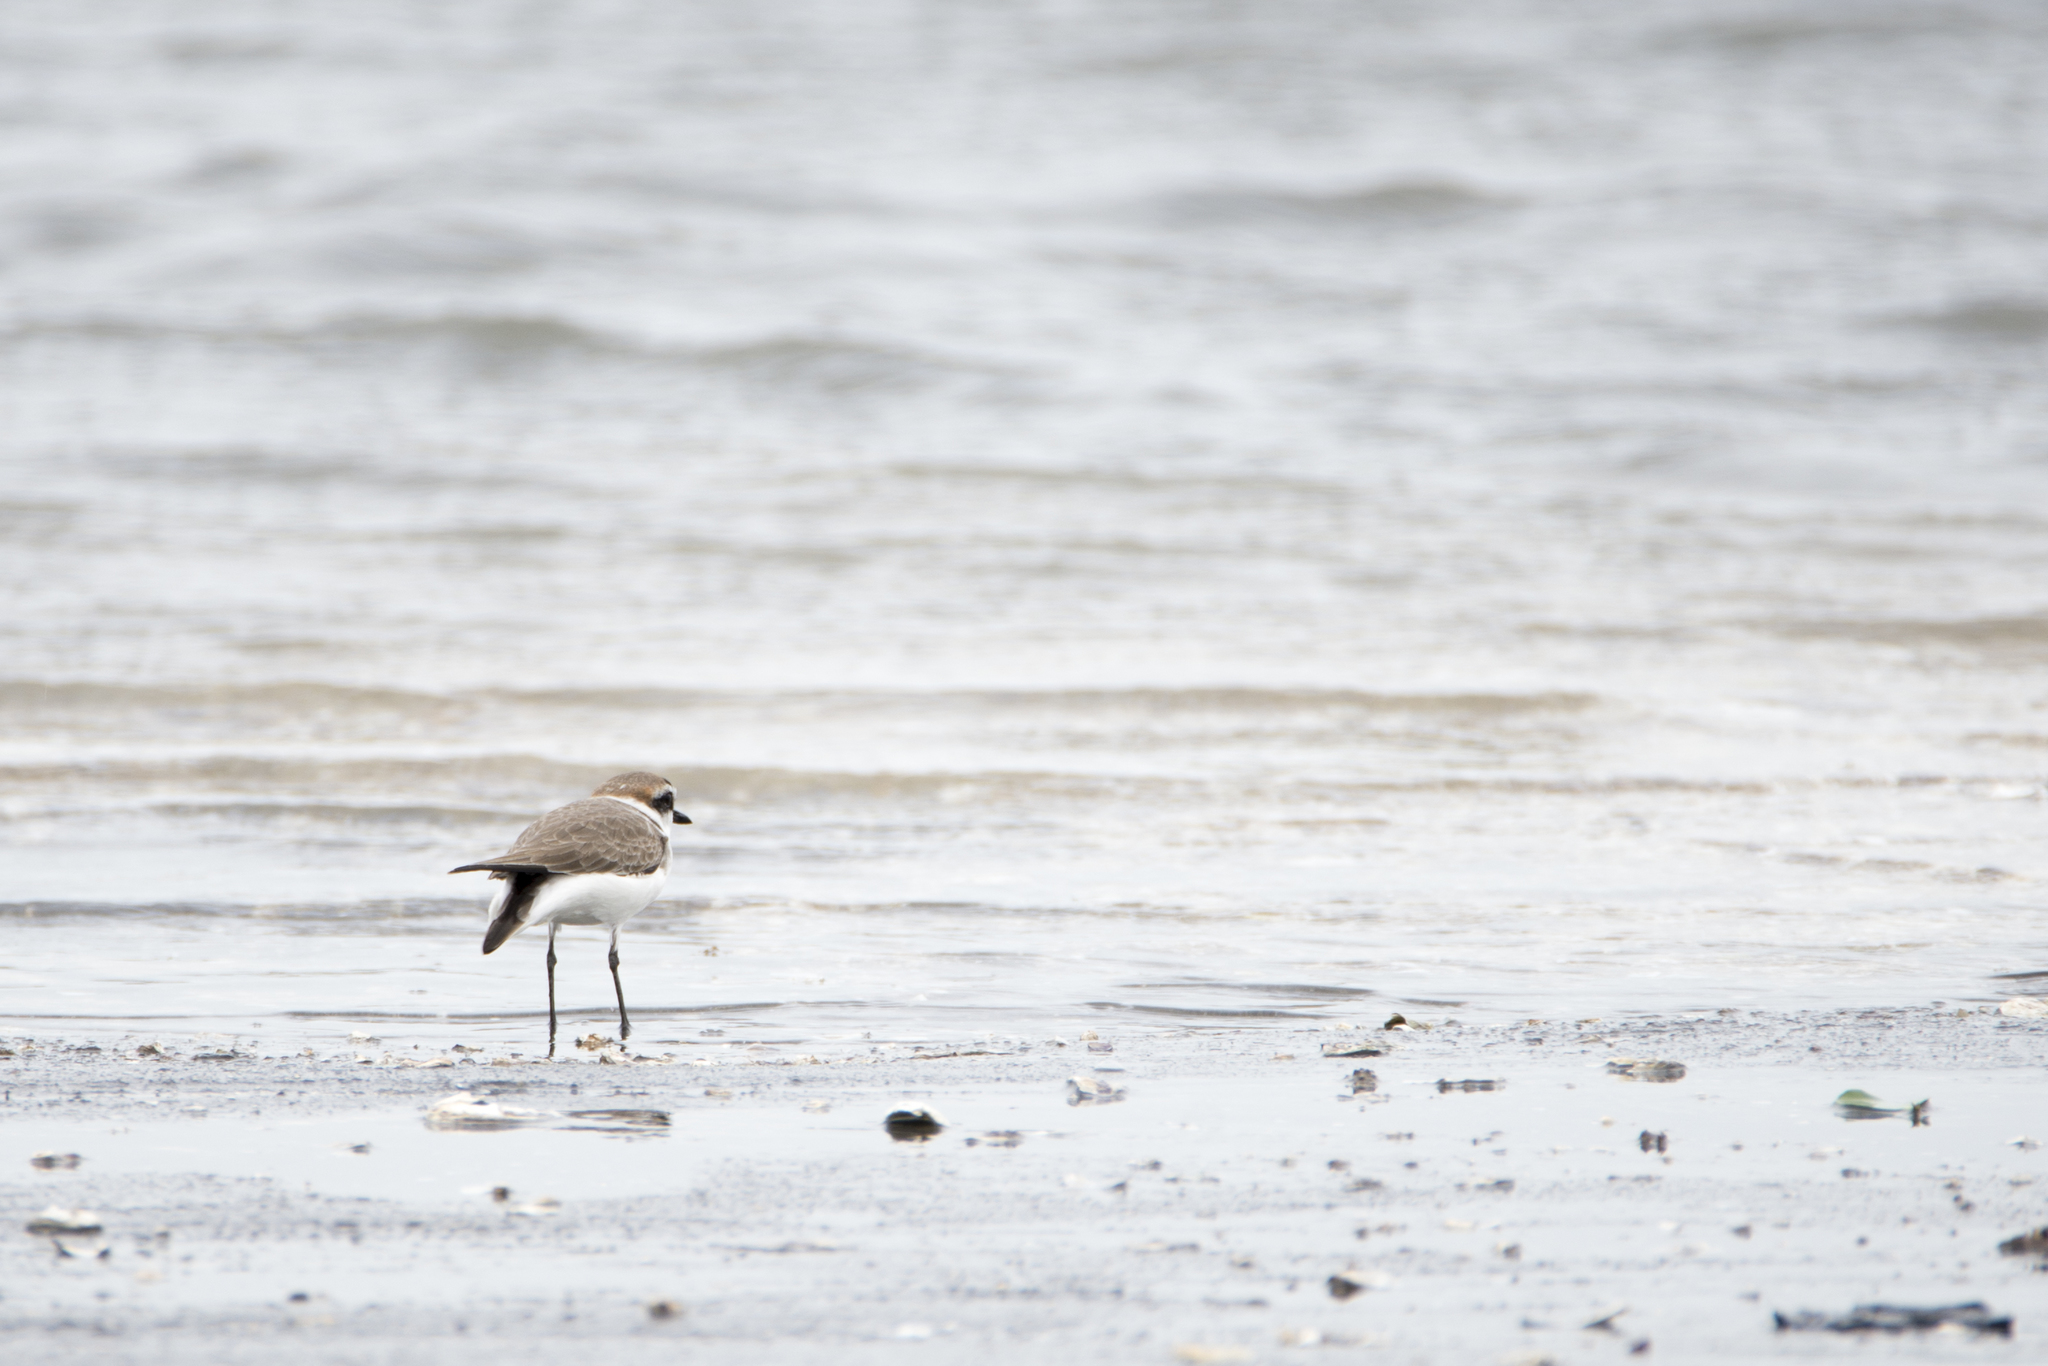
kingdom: Animalia
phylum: Chordata
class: Aves
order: Charadriiformes
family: Charadriidae
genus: Charadrius
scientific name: Charadrius alexandrinus
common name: Kentish plover
